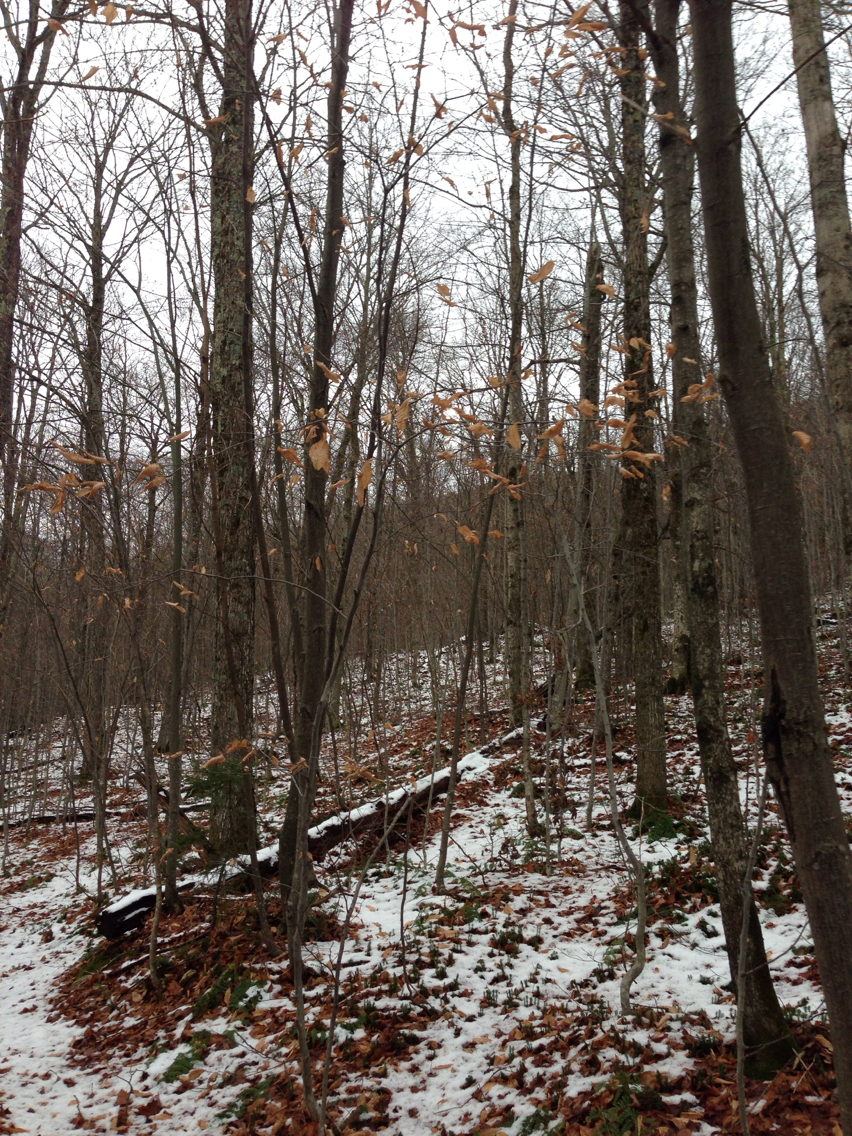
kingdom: Plantae
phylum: Tracheophyta
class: Magnoliopsida
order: Fagales
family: Fagaceae
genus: Fagus
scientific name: Fagus grandifolia
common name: American beech
